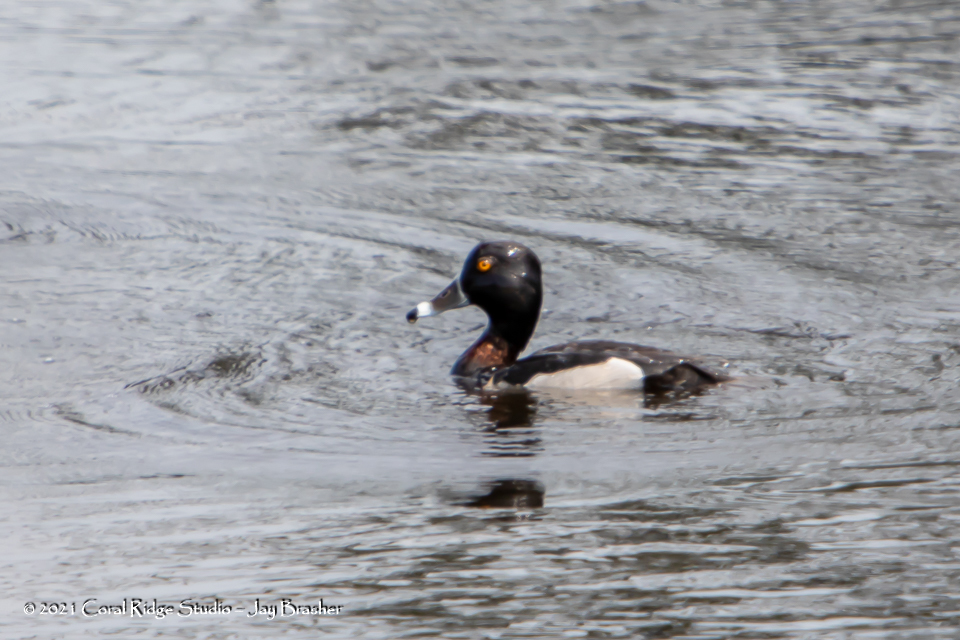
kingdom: Animalia
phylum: Chordata
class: Aves
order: Anseriformes
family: Anatidae
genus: Aythya
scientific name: Aythya collaris
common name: Ring-necked duck
